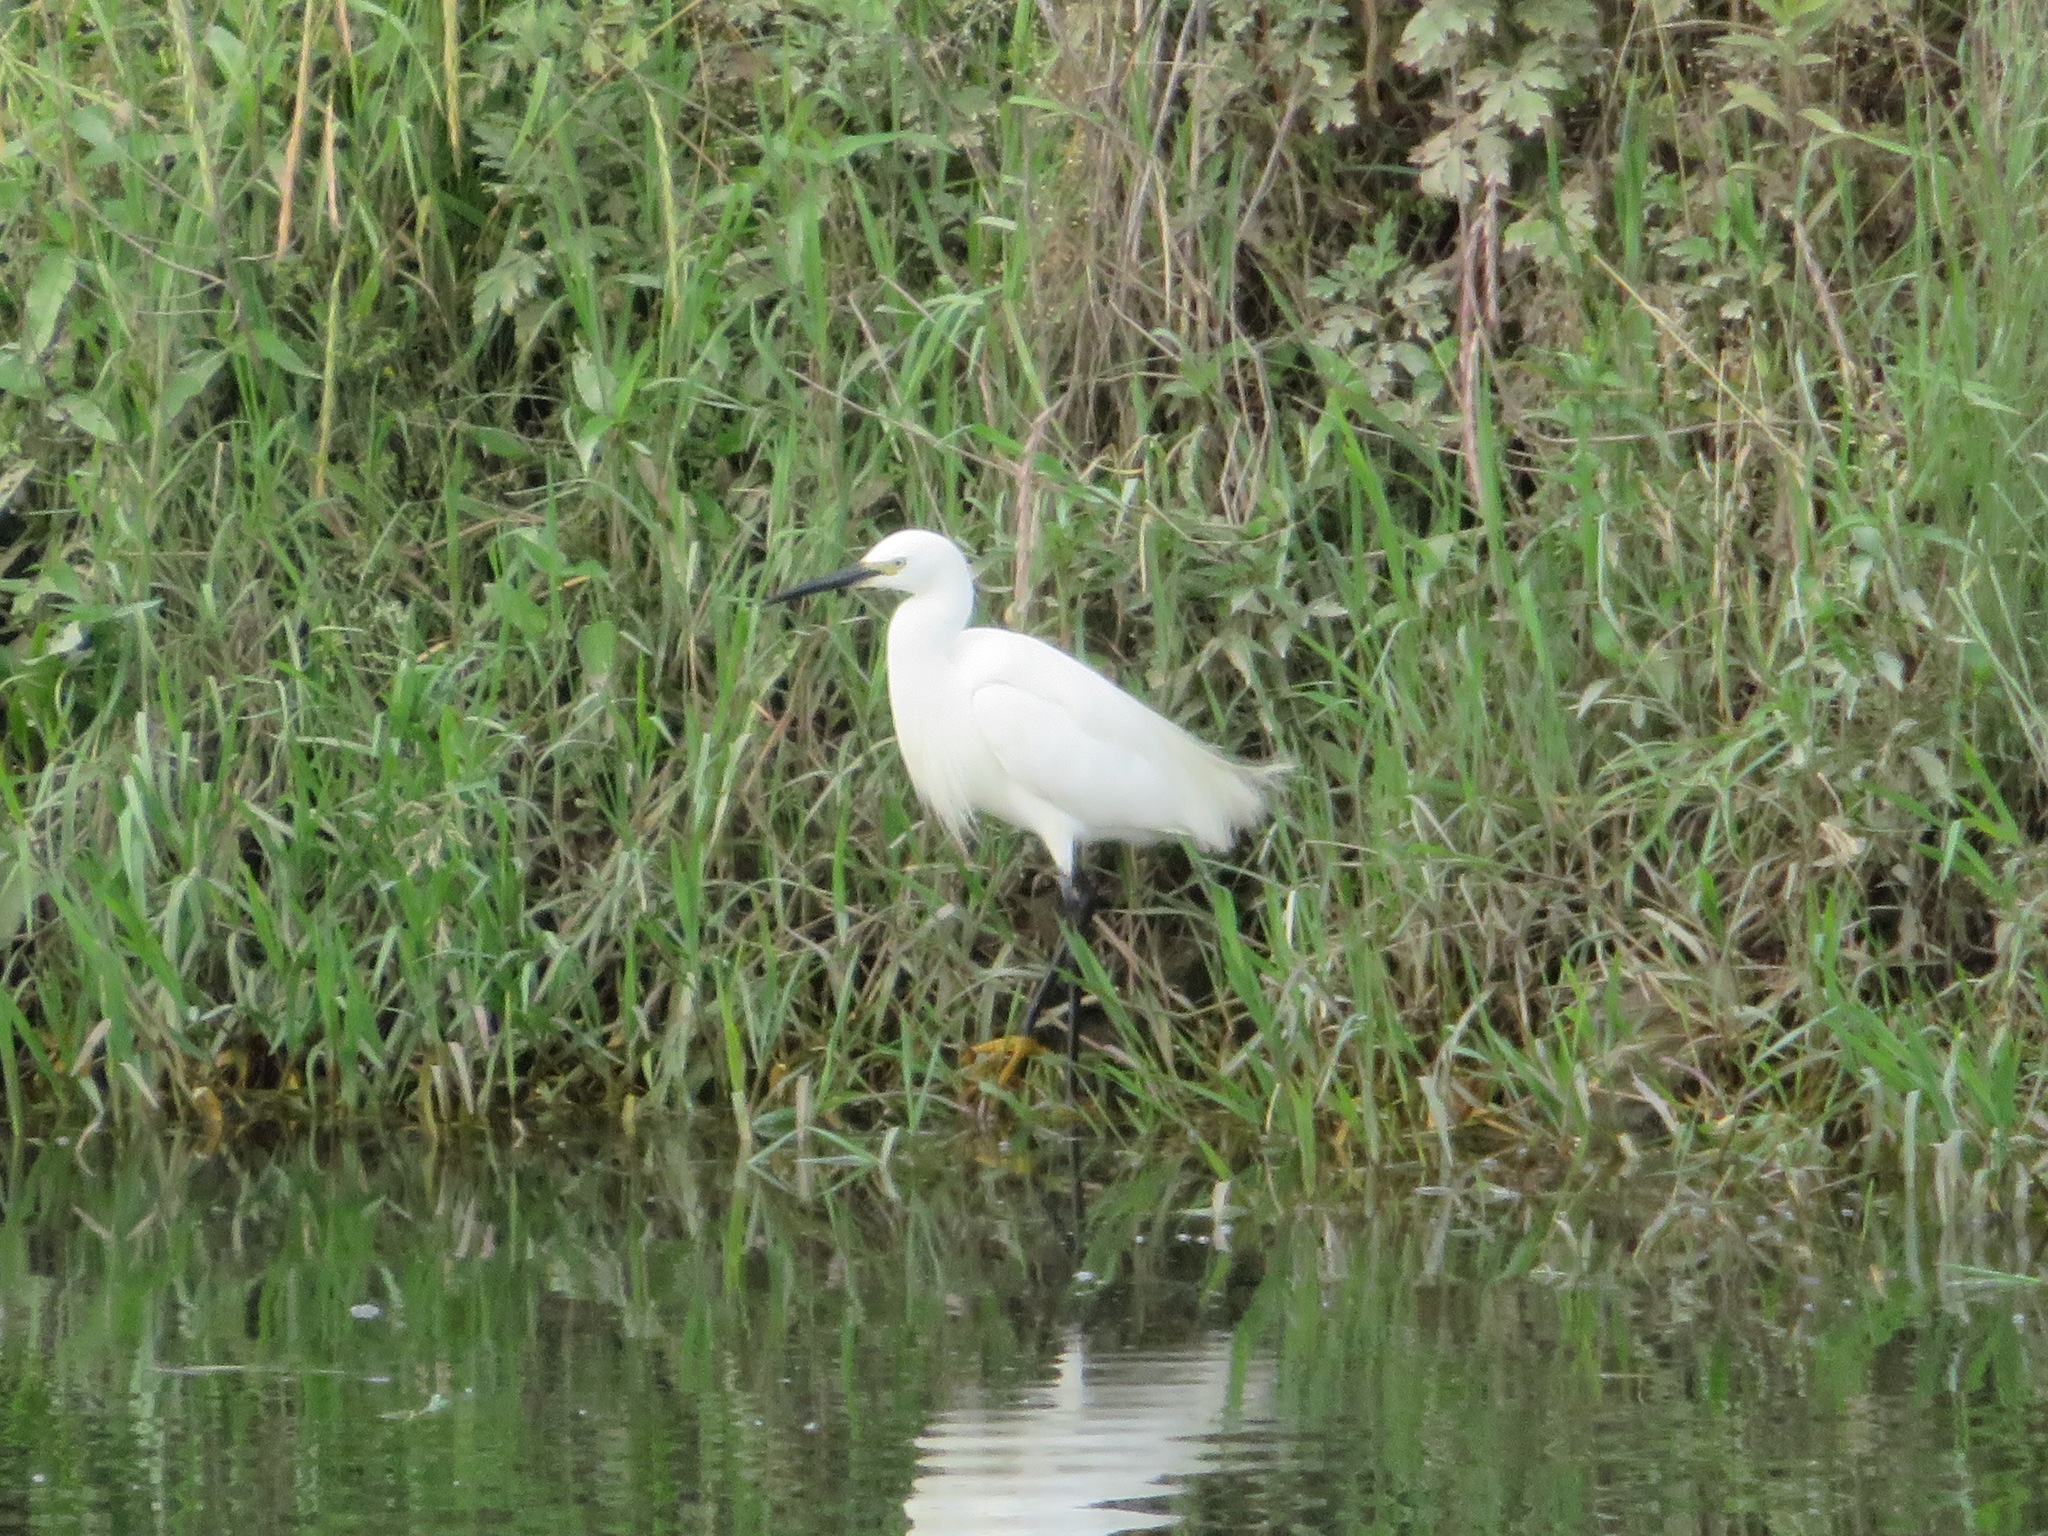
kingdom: Animalia
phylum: Chordata
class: Aves
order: Pelecaniformes
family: Ardeidae
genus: Egretta
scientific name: Egretta garzetta
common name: Little egret
